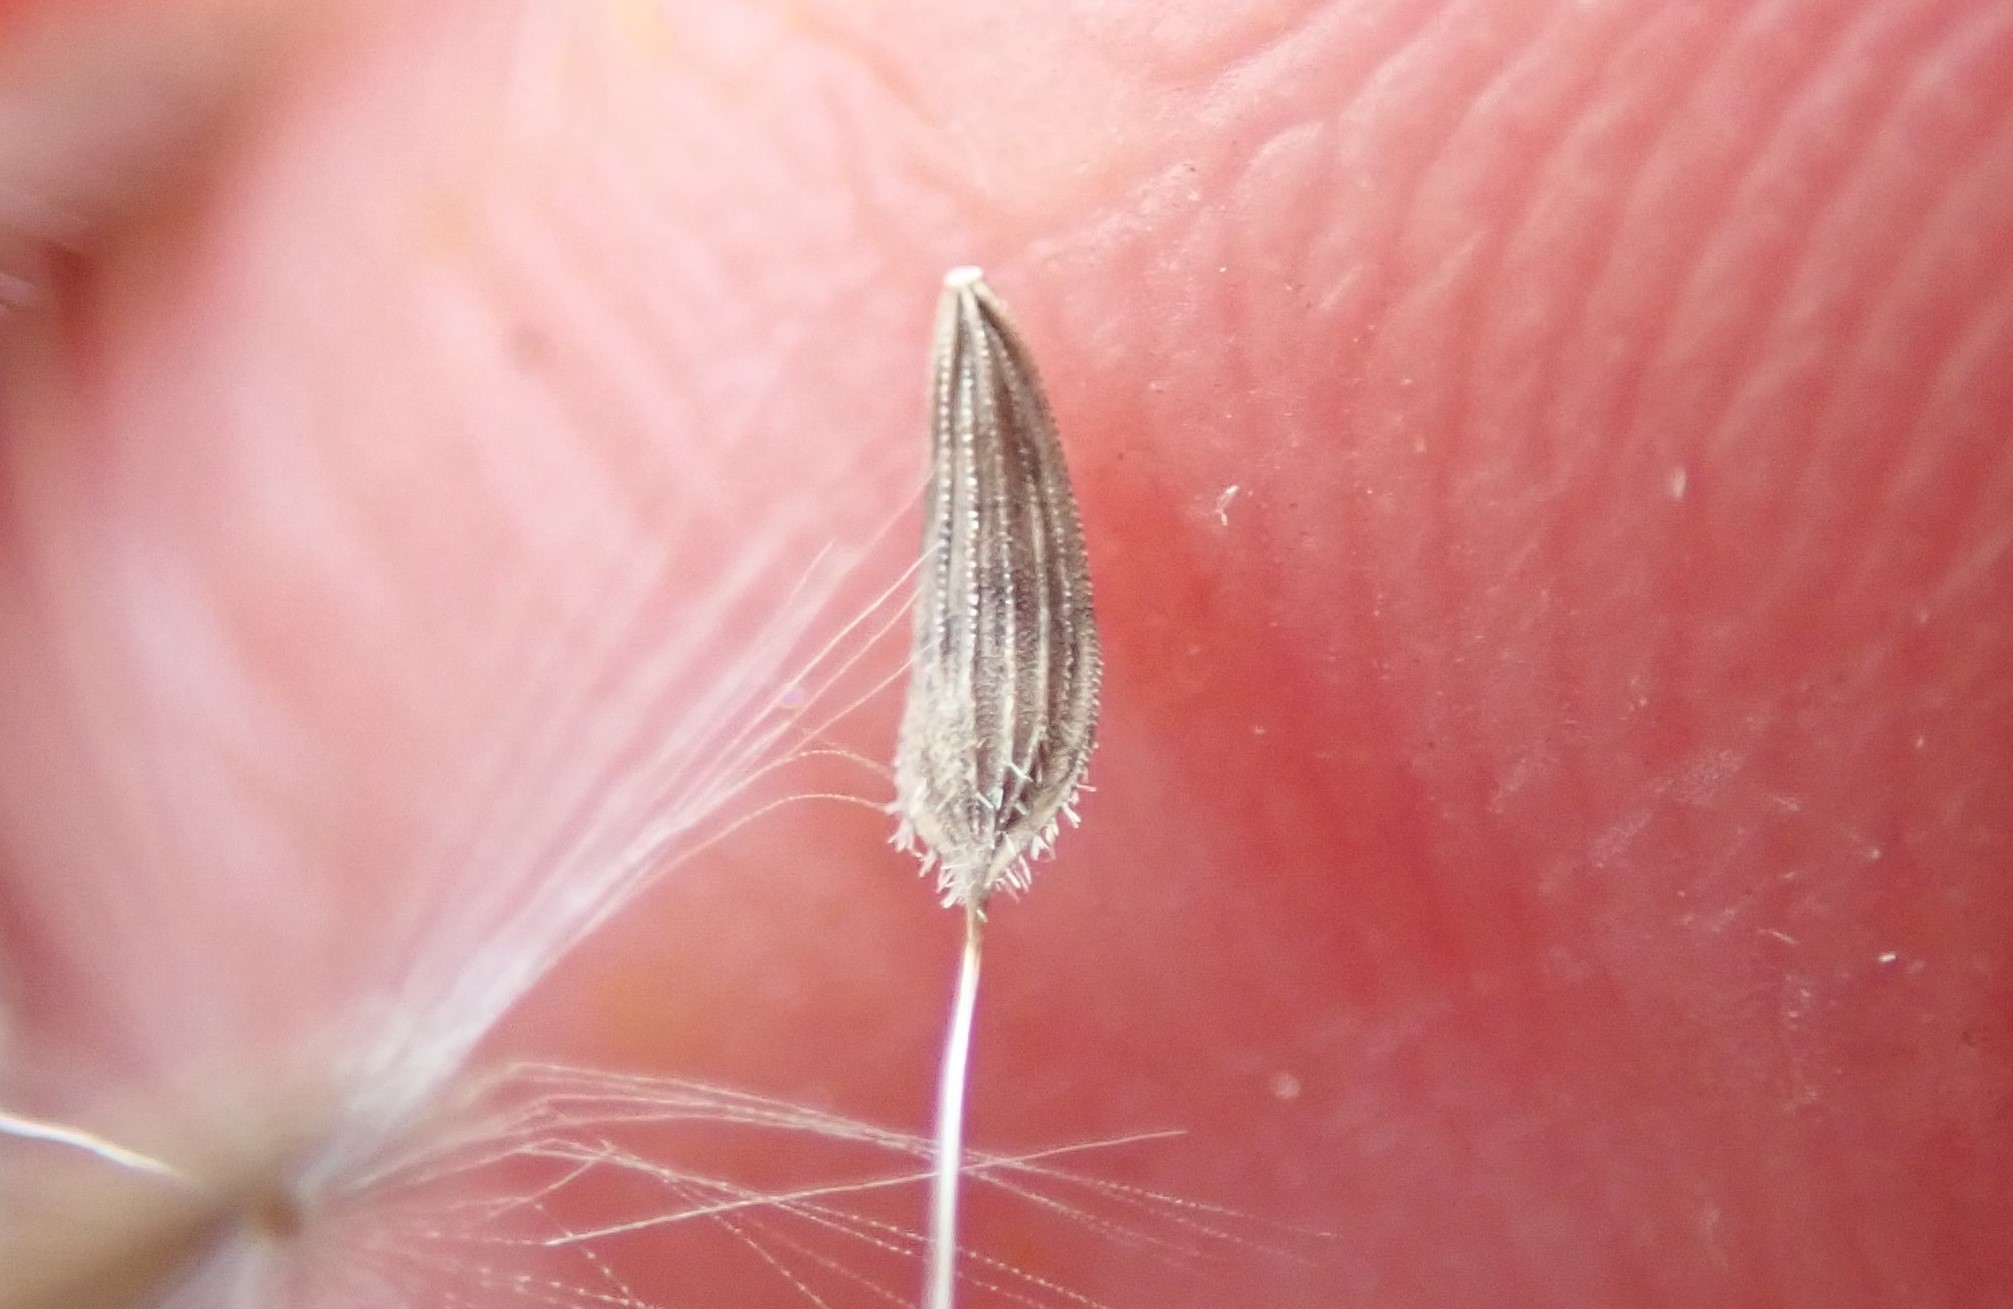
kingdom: Plantae
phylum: Tracheophyta
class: Magnoliopsida
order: Asterales
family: Asteraceae
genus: Lactuca
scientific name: Lactuca serriola
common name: Prickly lettuce
